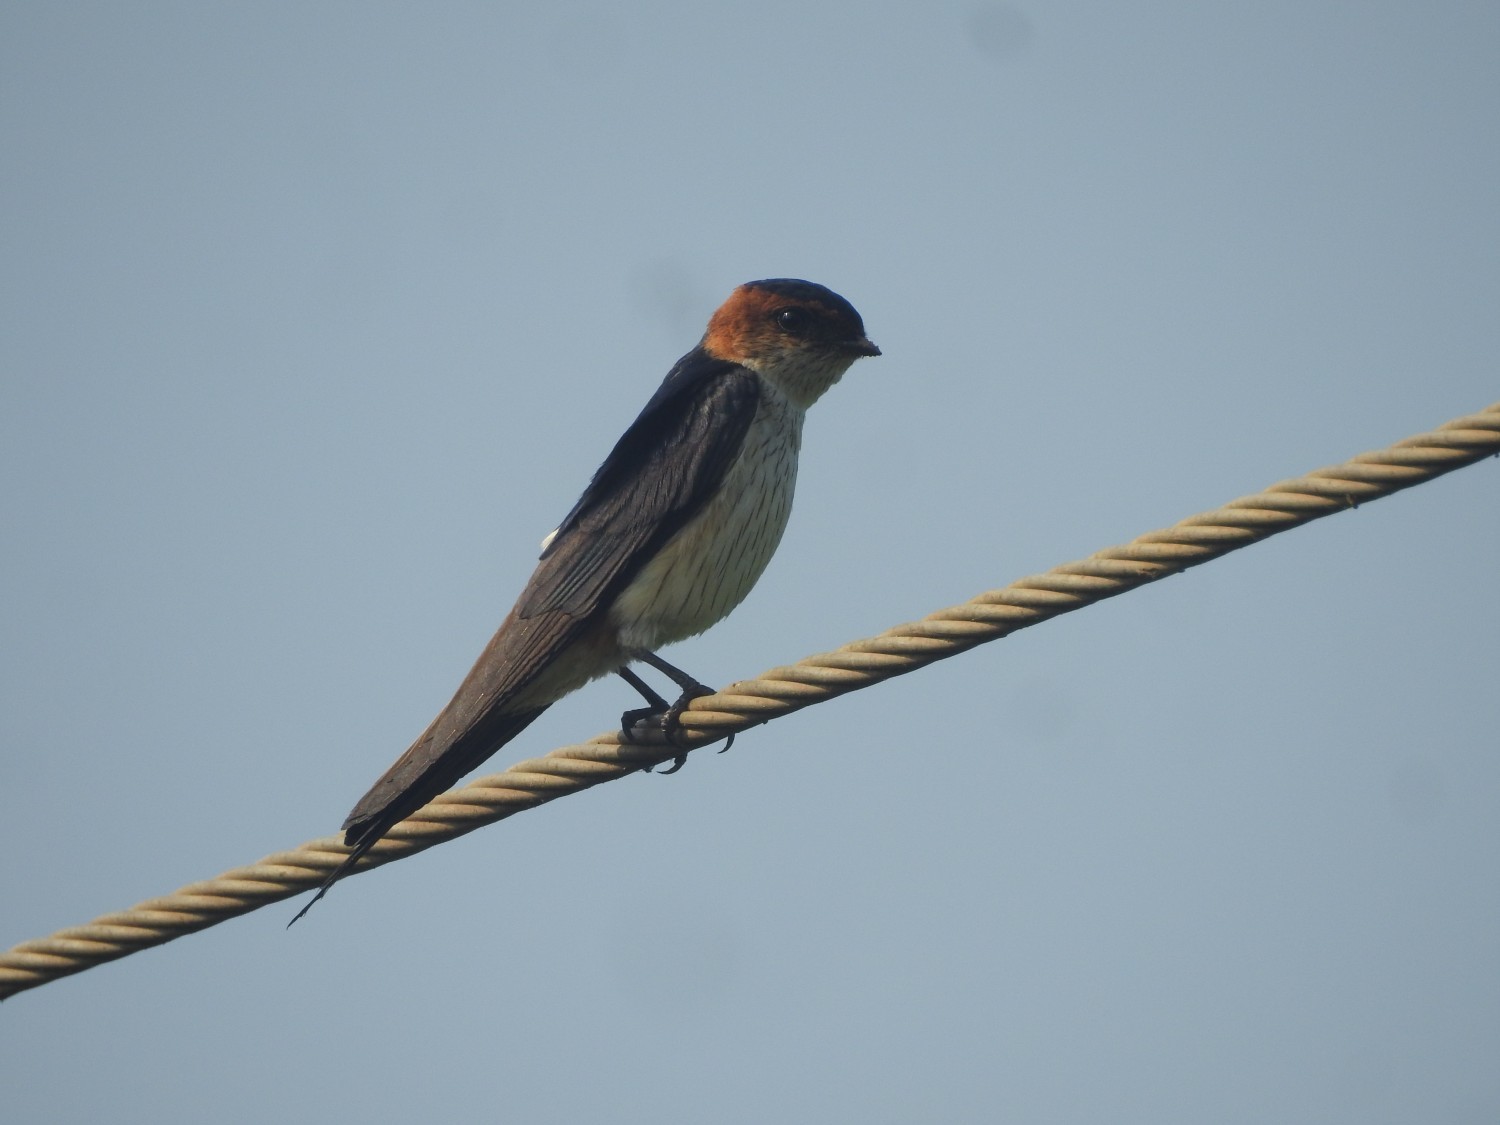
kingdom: Animalia
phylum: Chordata
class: Aves
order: Passeriformes
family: Hirundinidae
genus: Cecropis
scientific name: Cecropis daurica
